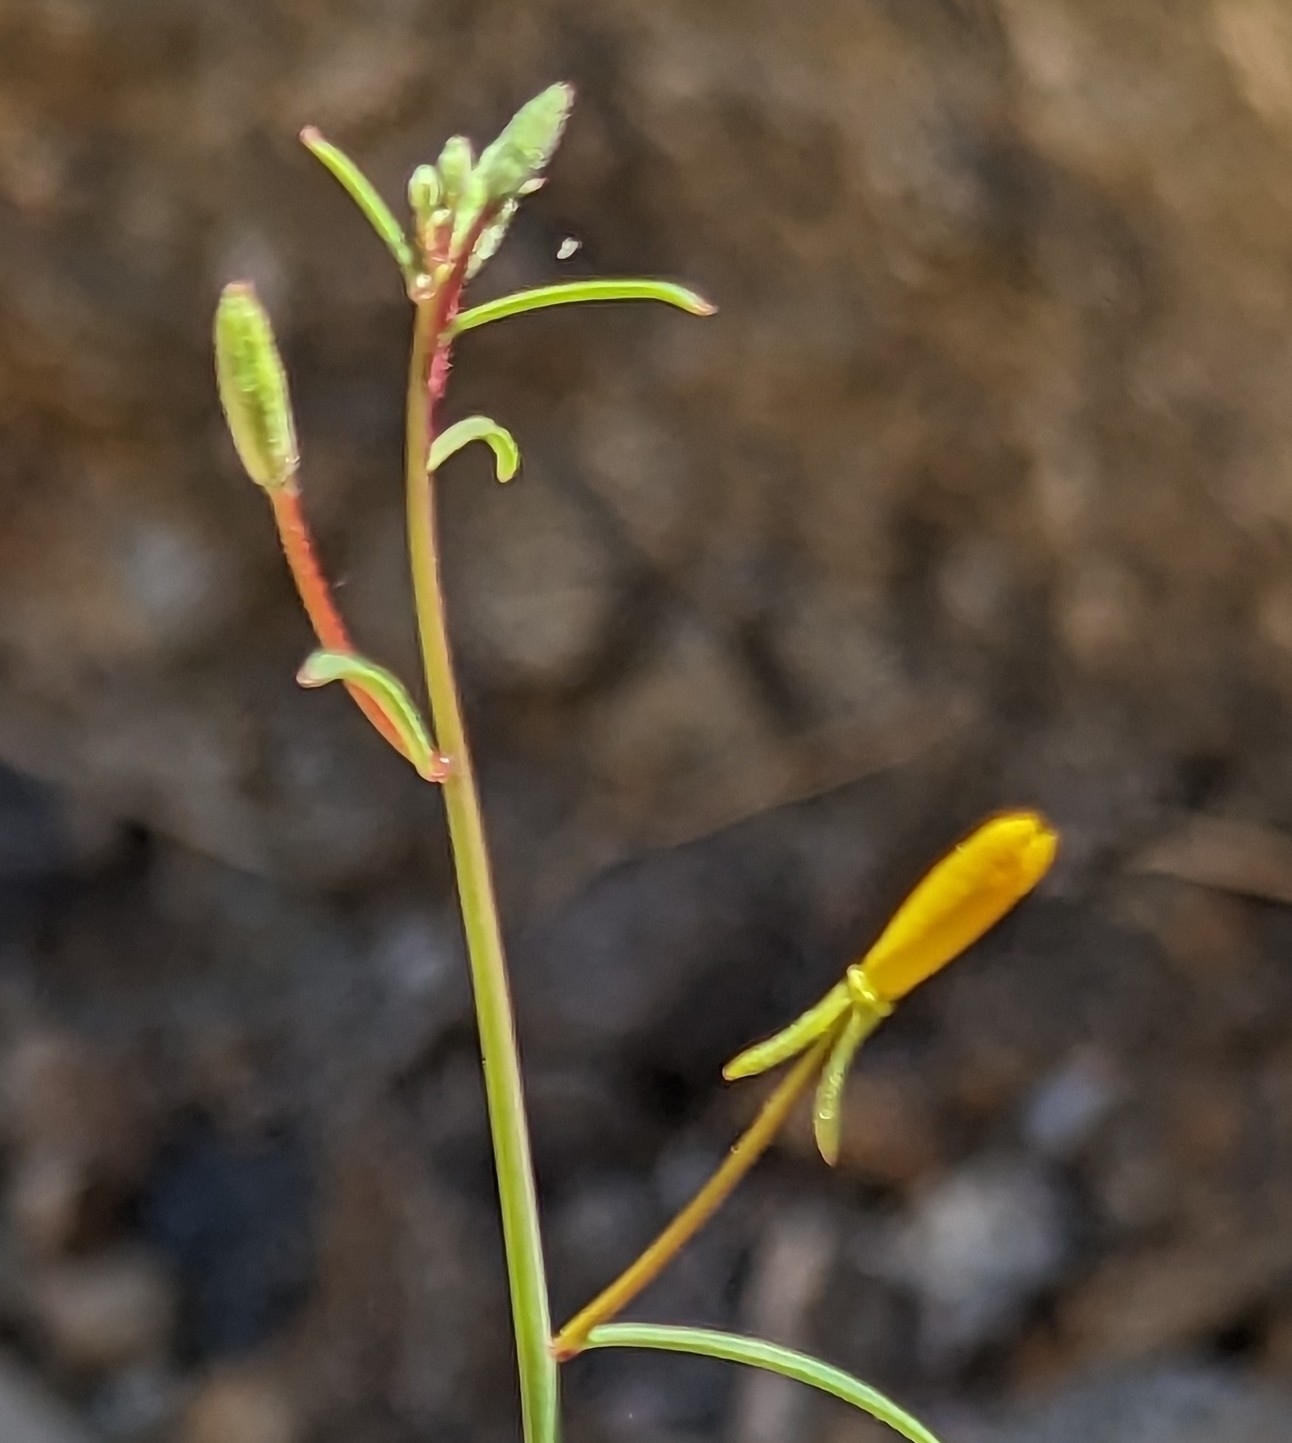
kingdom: Plantae
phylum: Tracheophyta
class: Magnoliopsida
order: Myrtales
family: Onagraceae
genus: Eulobus
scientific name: Eulobus californicus
